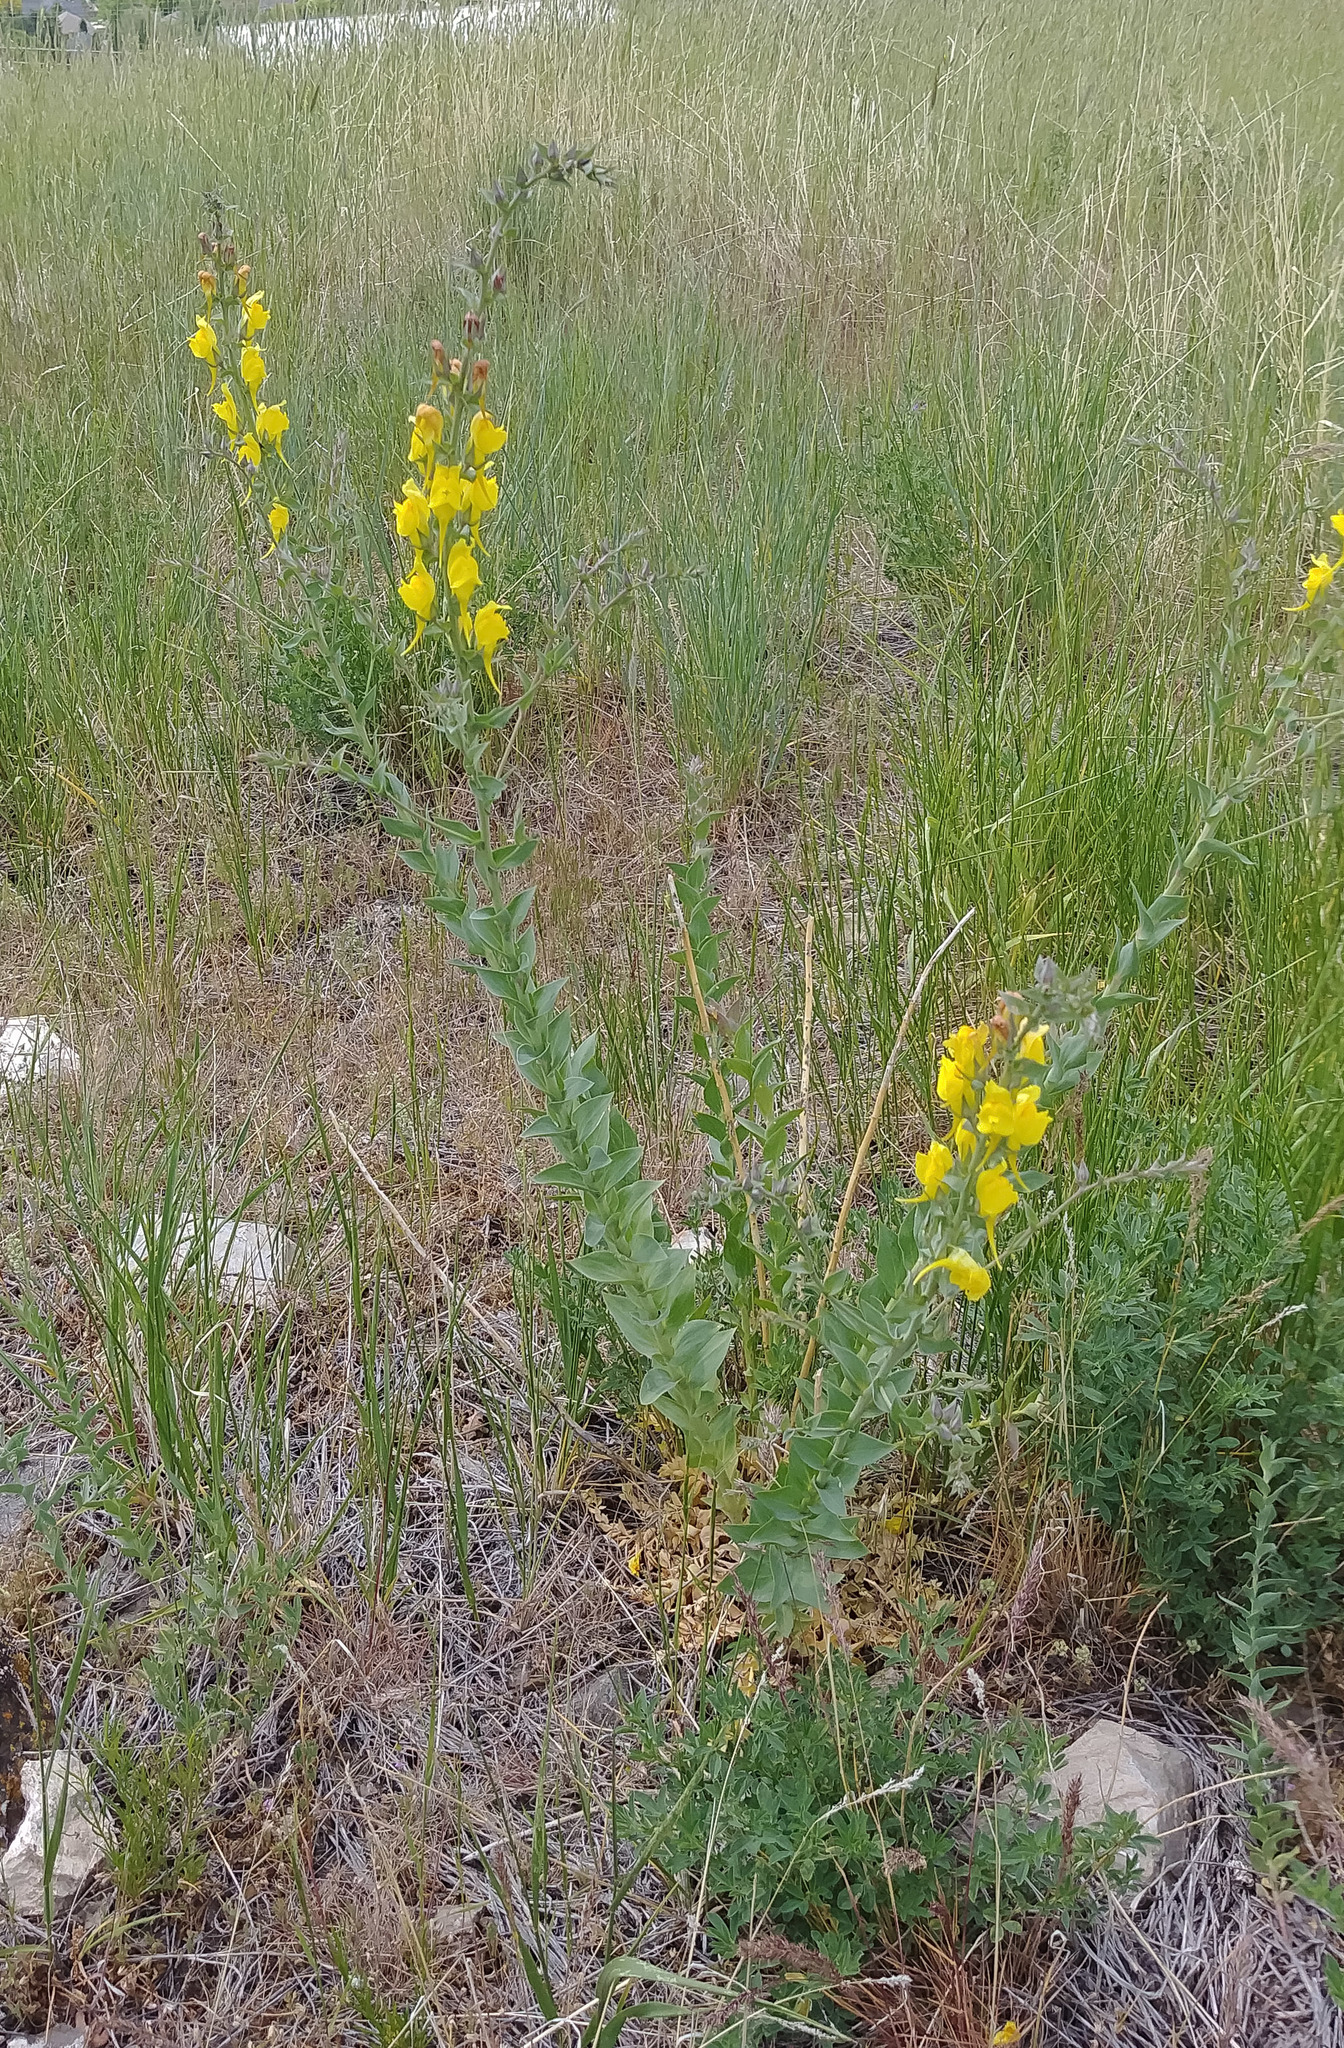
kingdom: Plantae
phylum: Tracheophyta
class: Magnoliopsida
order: Lamiales
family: Plantaginaceae
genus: Linaria
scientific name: Linaria dalmatica
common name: Dalmatian toadflax
